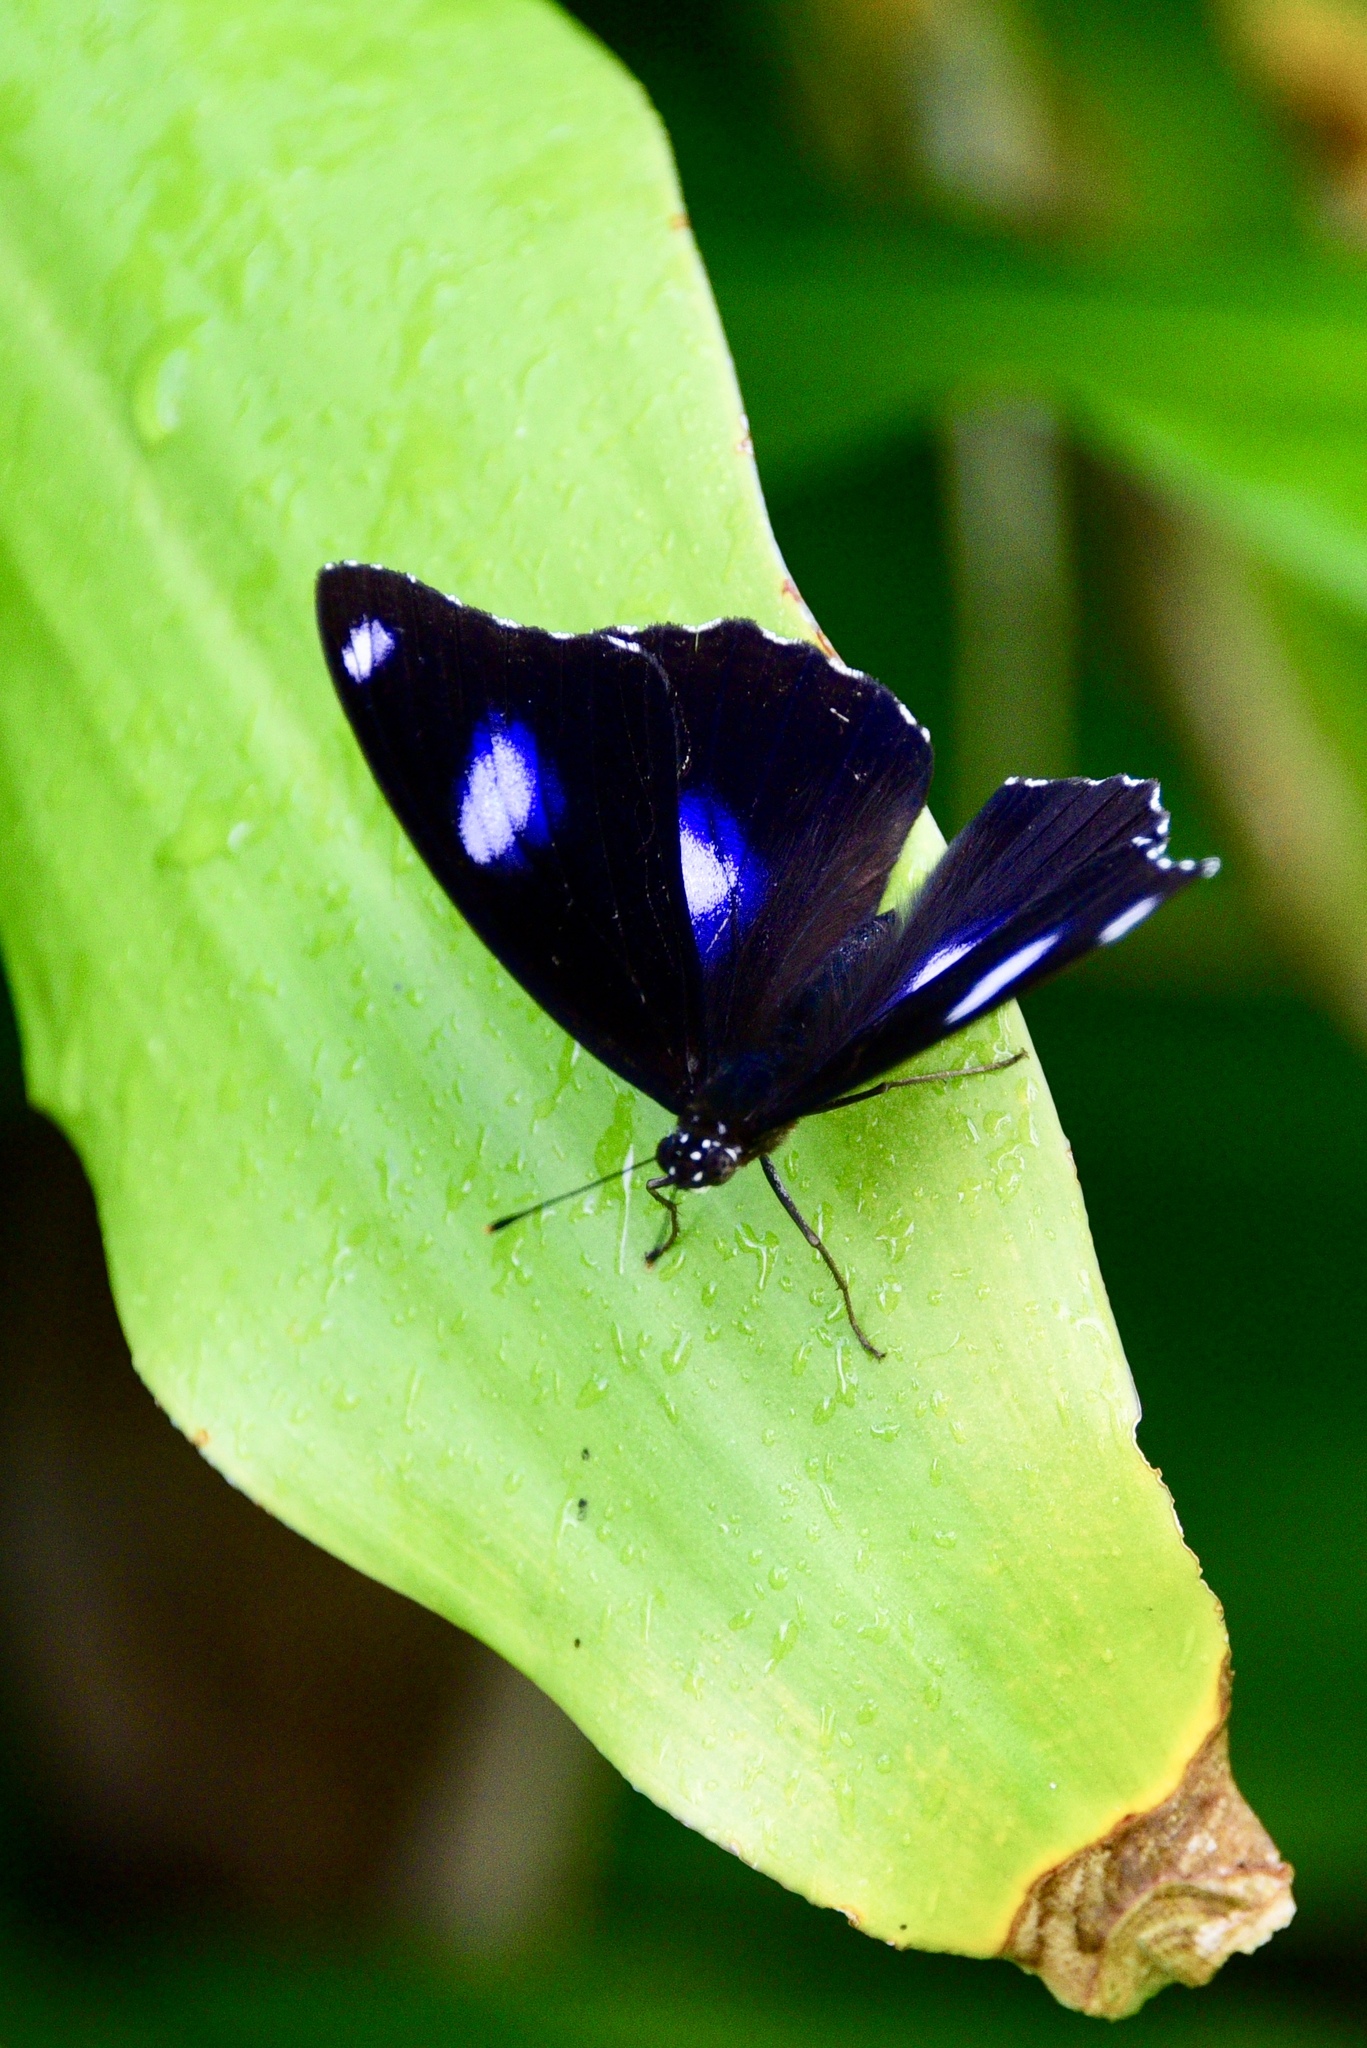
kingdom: Animalia
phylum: Arthropoda
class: Insecta
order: Lepidoptera
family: Nymphalidae
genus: Hypolimnas
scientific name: Hypolimnas bolina
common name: Great eggfly
